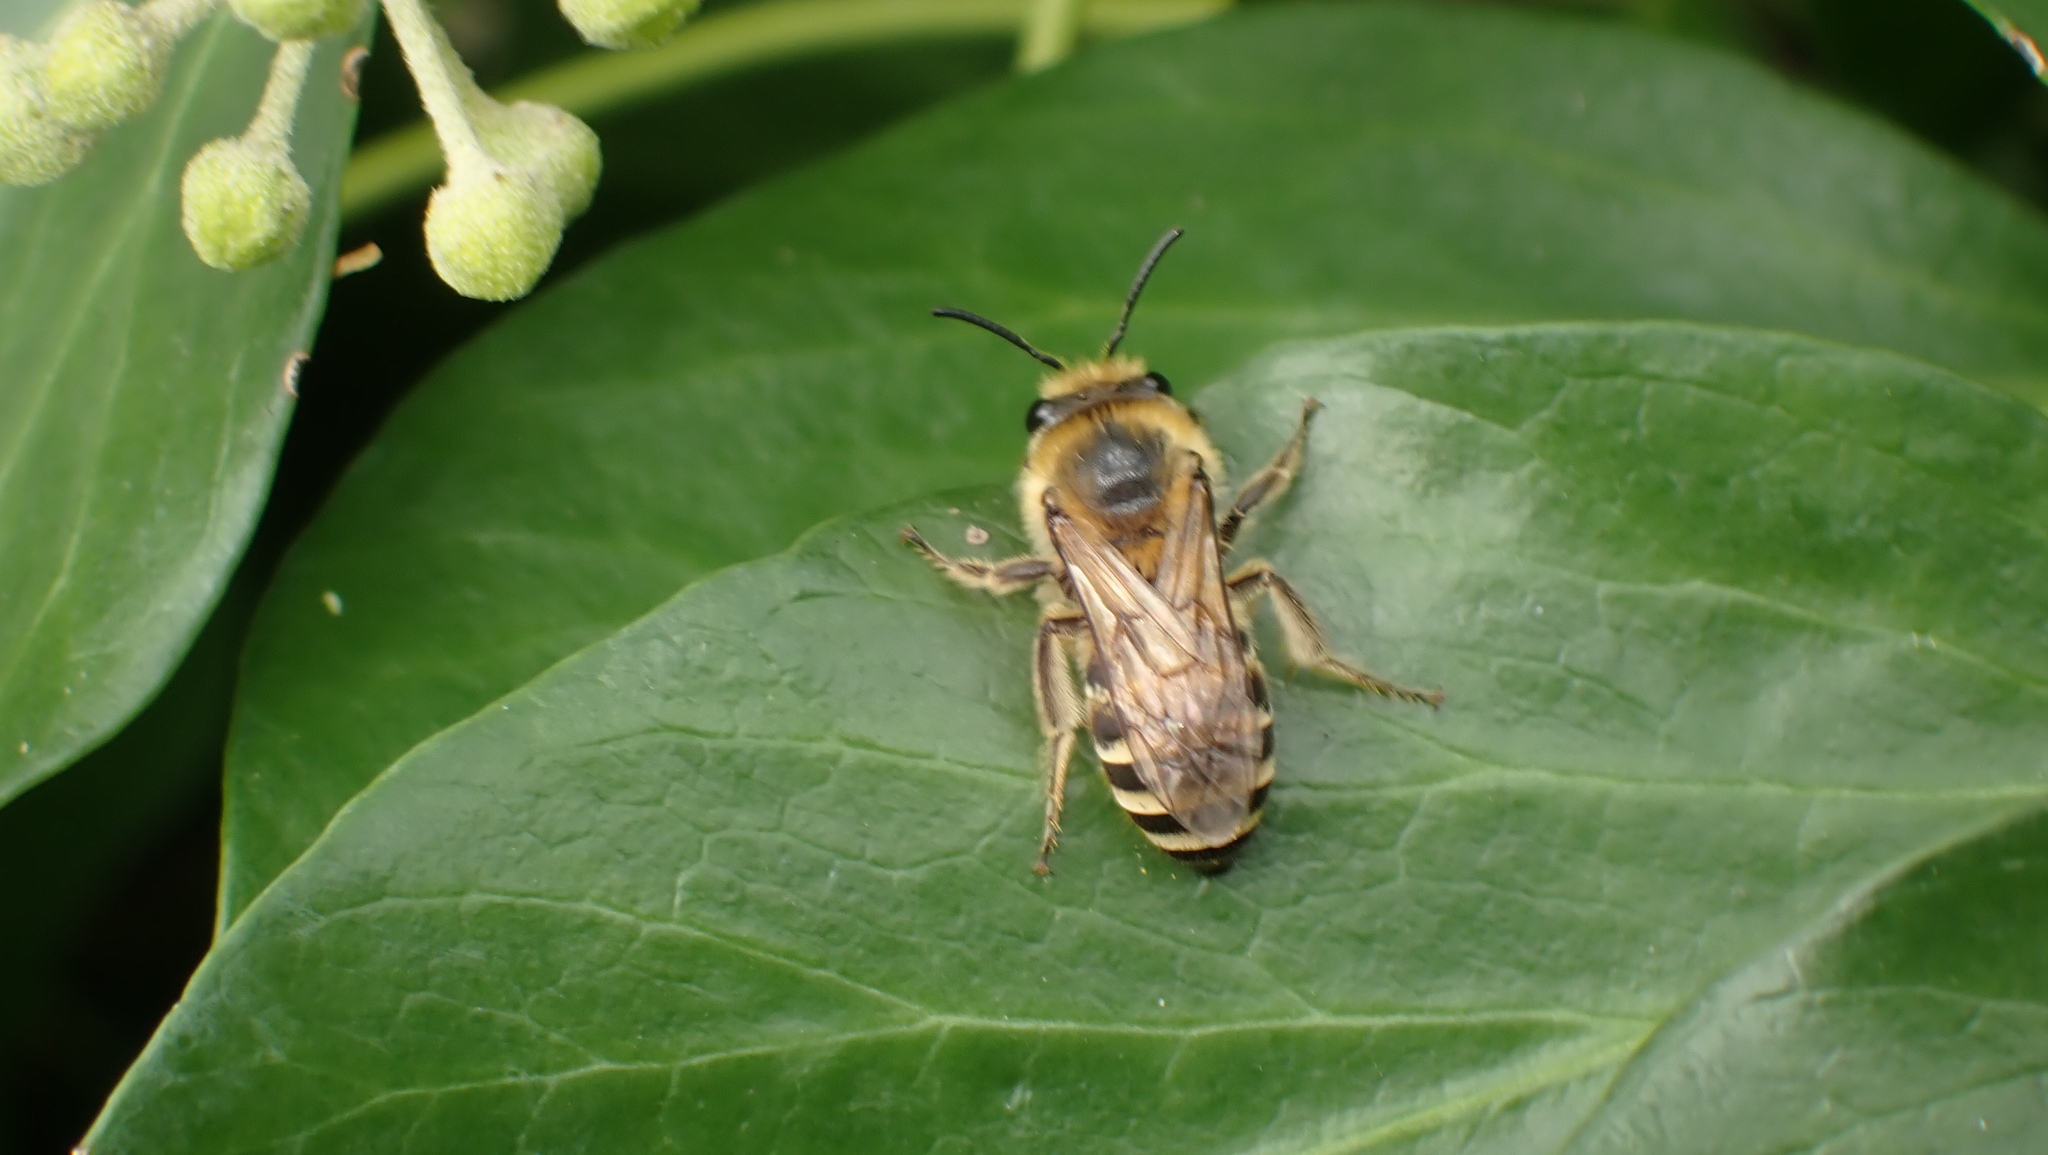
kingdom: Animalia
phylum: Arthropoda
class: Insecta
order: Hymenoptera
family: Colletidae
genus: Colletes
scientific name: Colletes hederae
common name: Ivy bee
